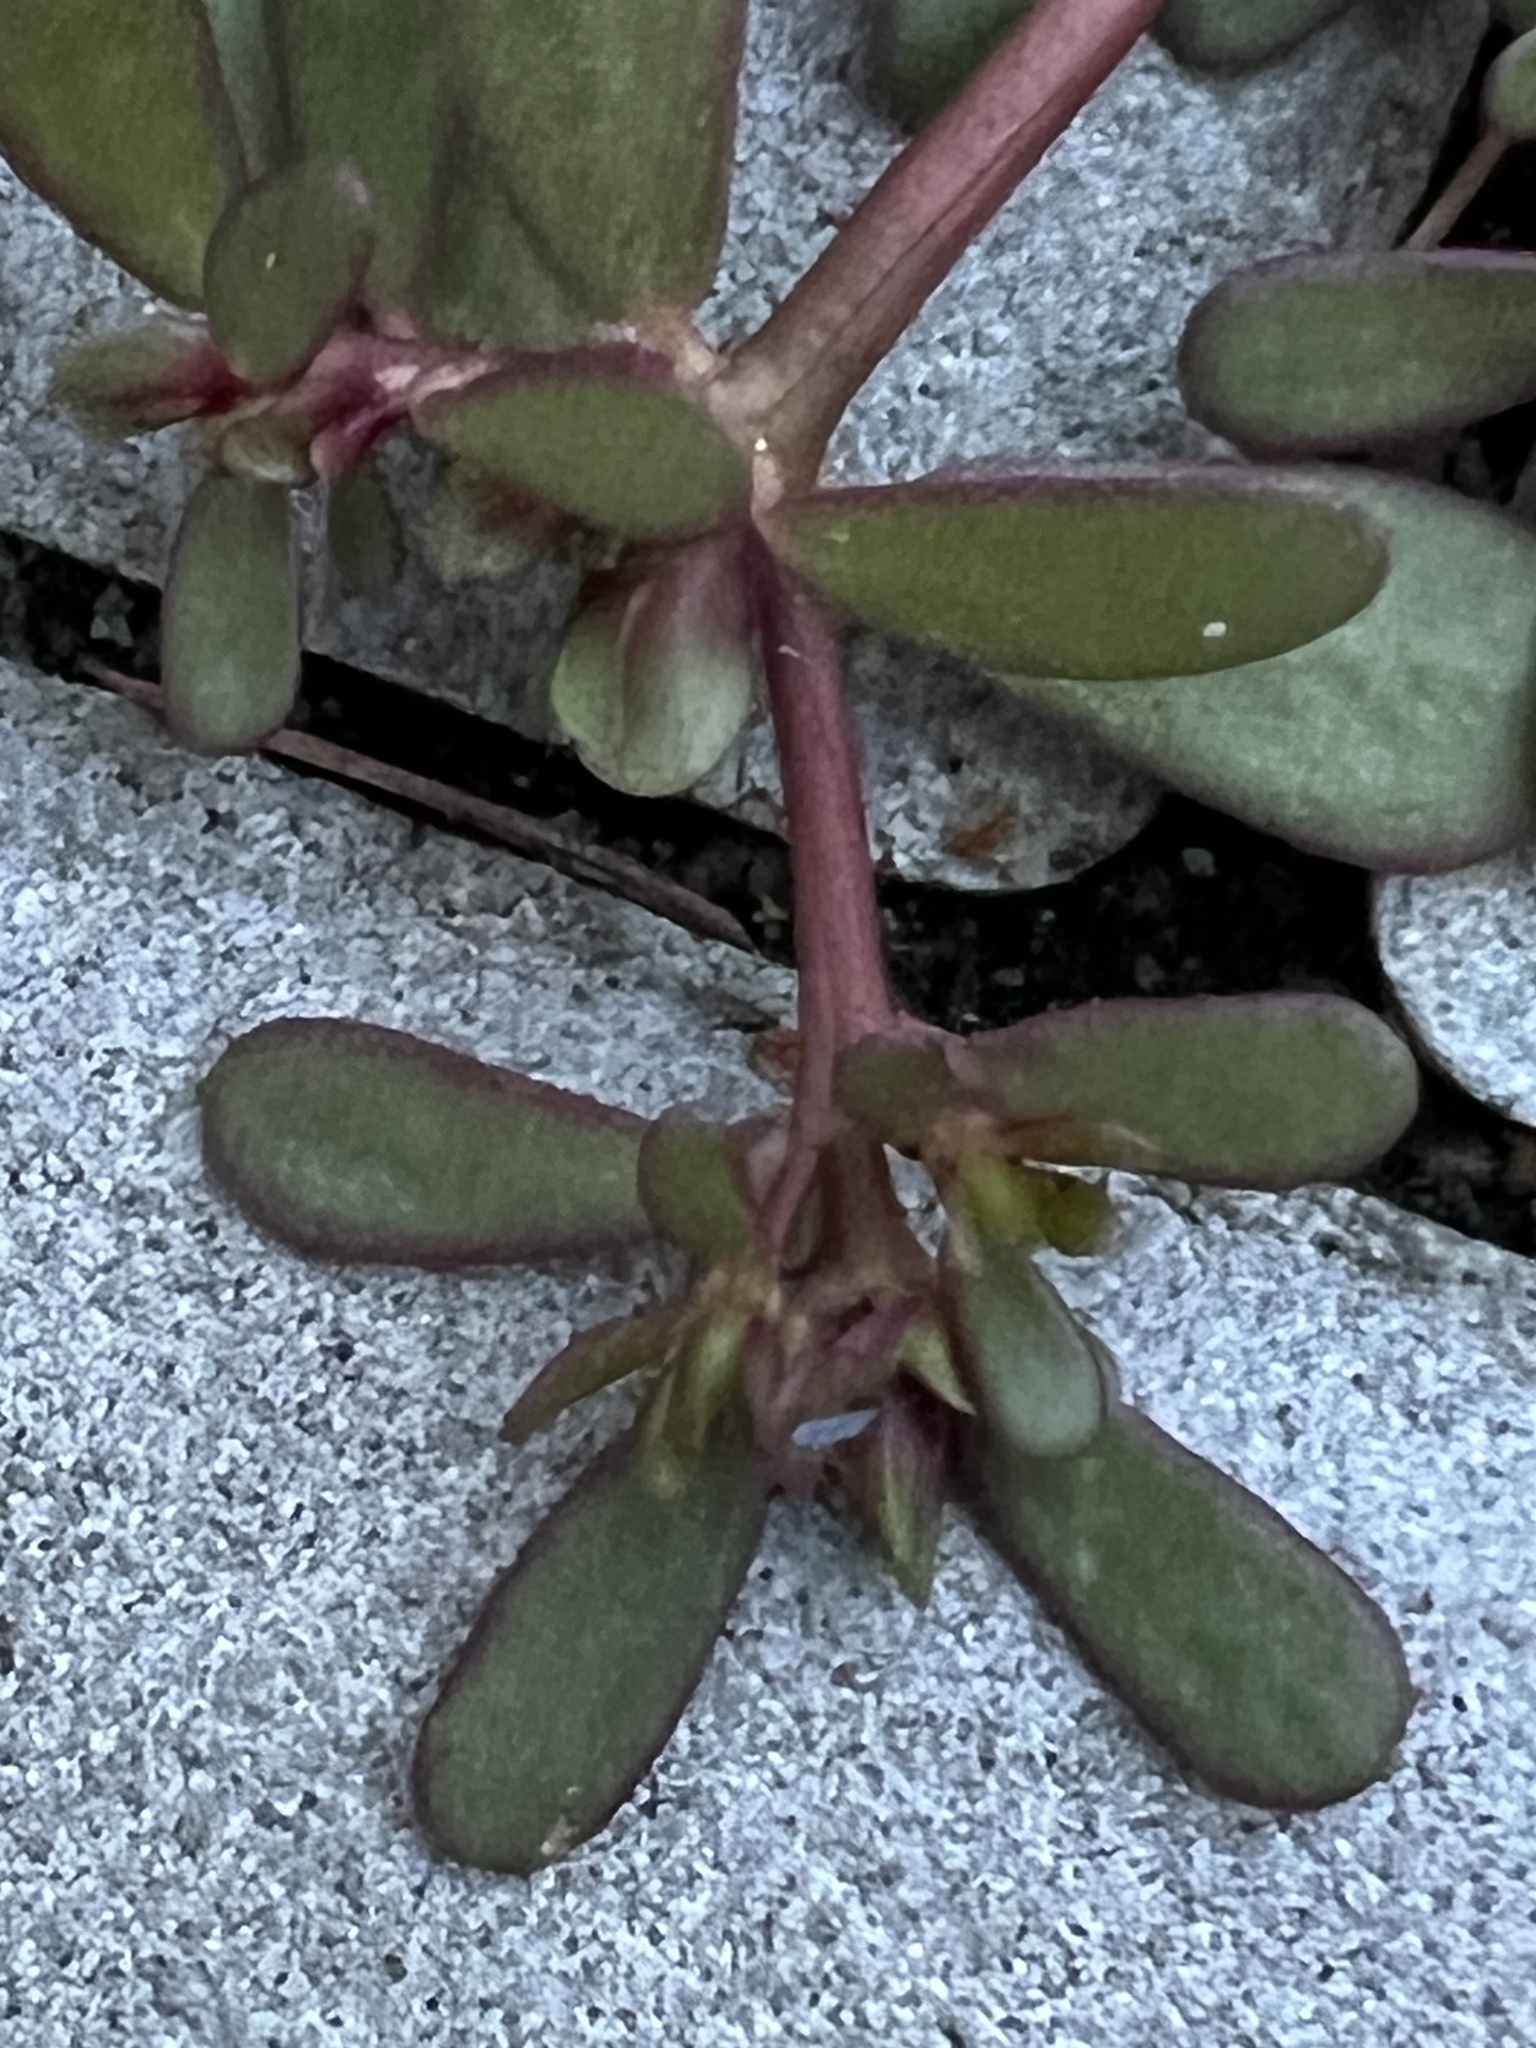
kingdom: Plantae
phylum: Tracheophyta
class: Magnoliopsida
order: Caryophyllales
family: Portulacaceae
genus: Portulaca
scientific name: Portulaca oleracea
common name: Common purslane
